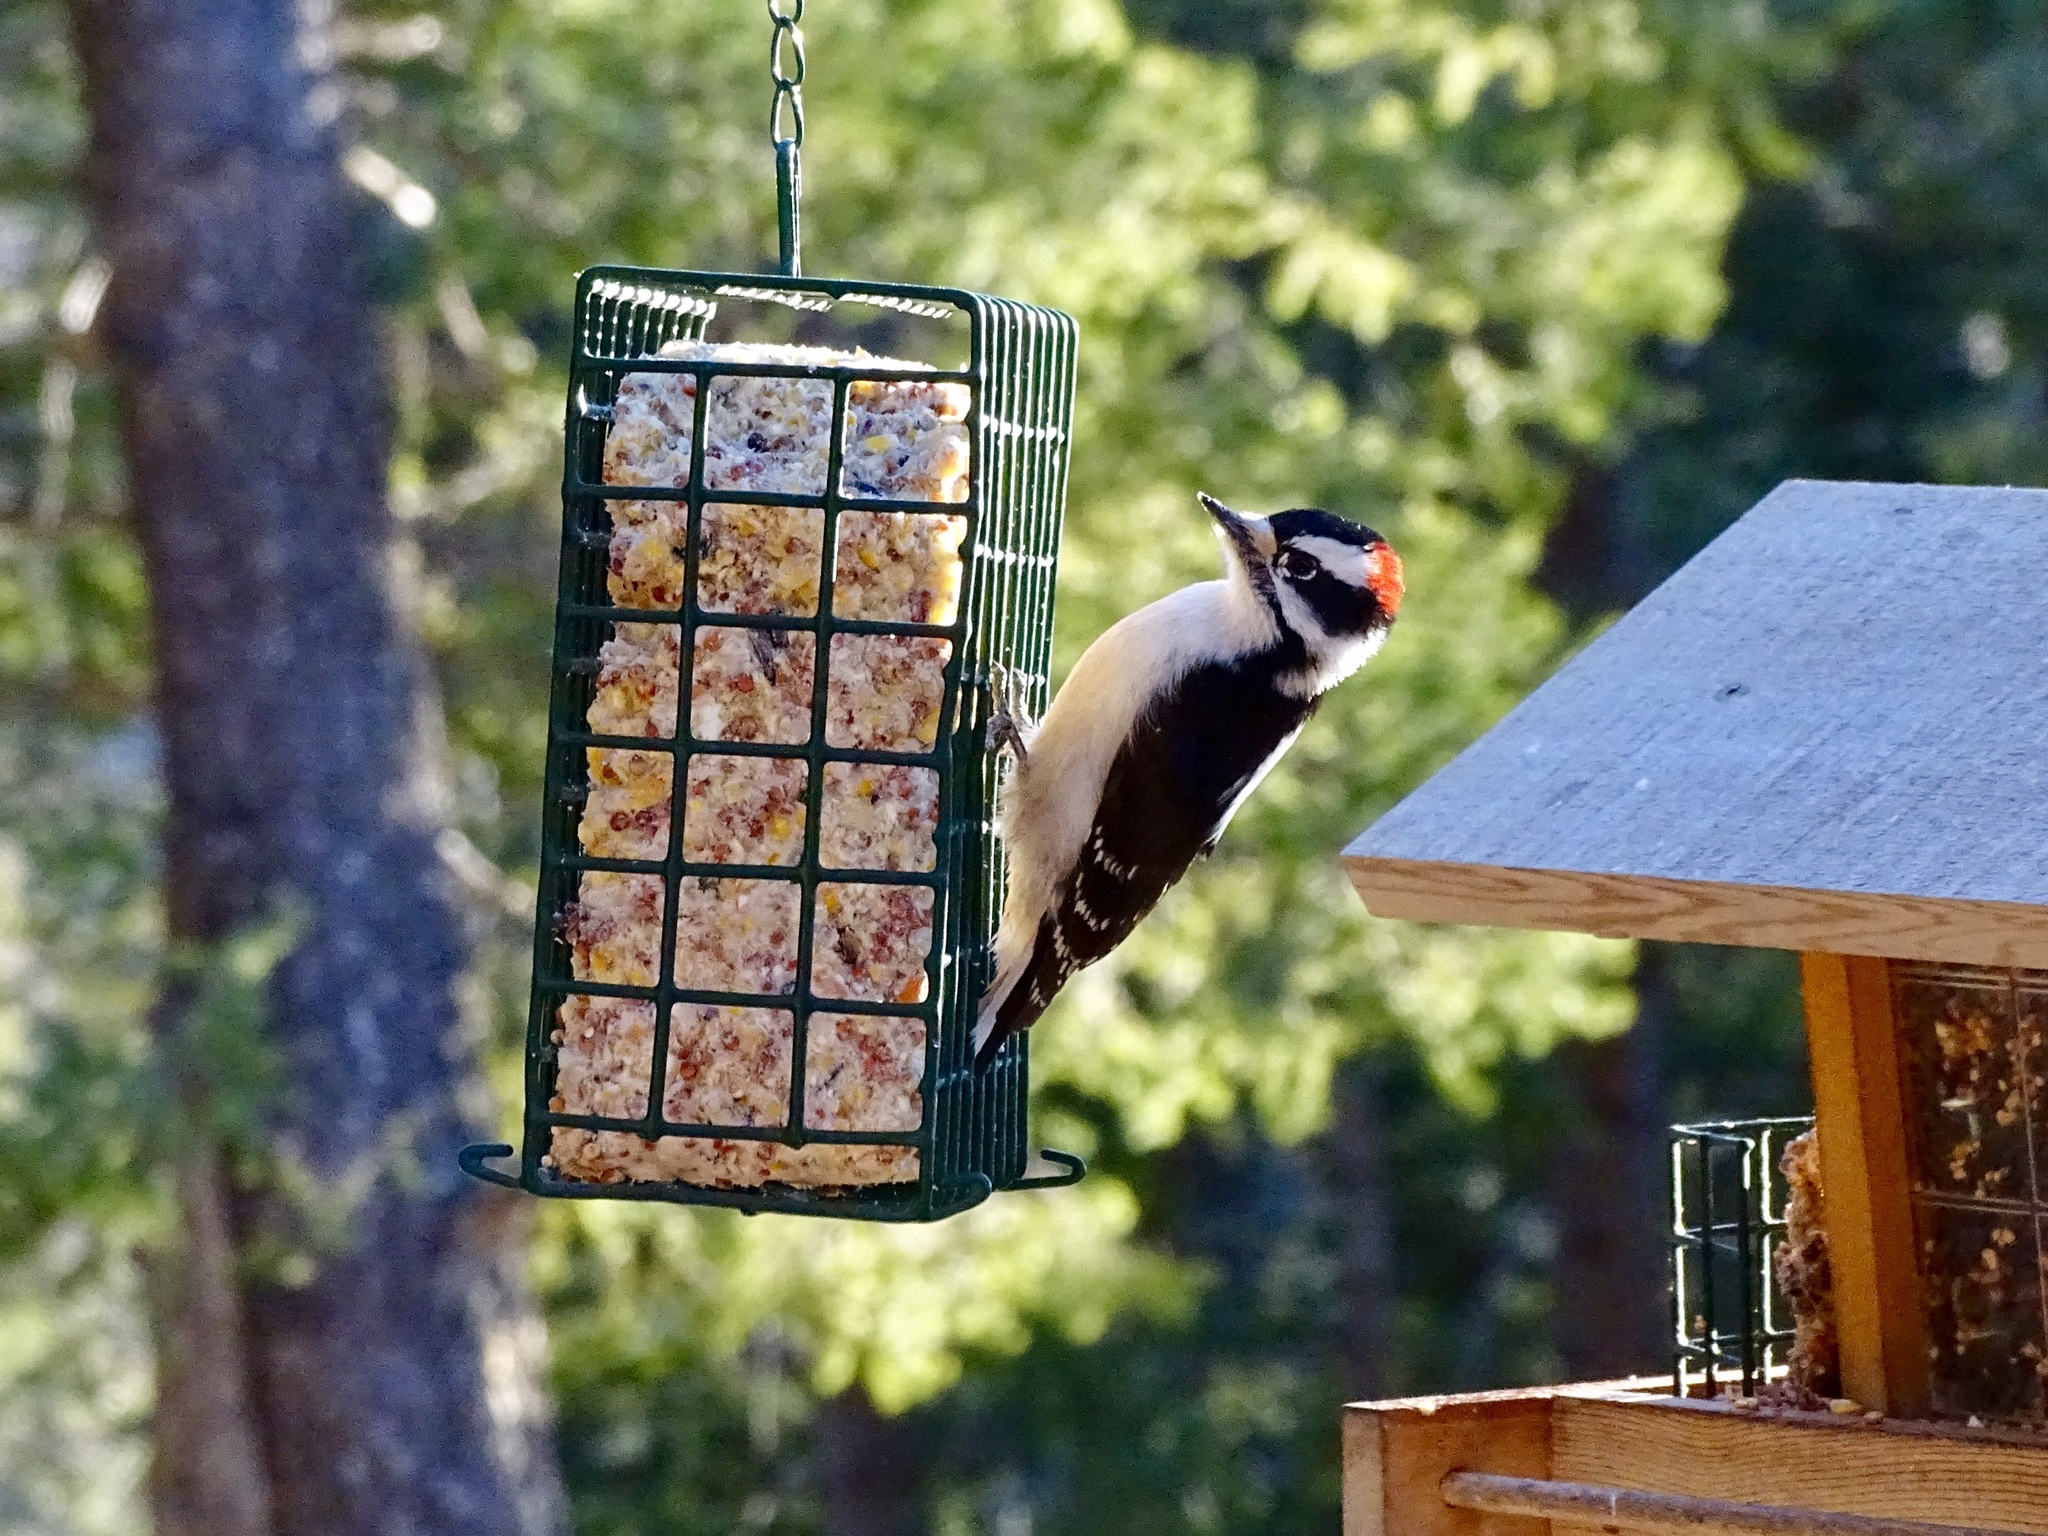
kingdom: Animalia
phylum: Chordata
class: Aves
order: Piciformes
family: Picidae
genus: Dryobates
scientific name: Dryobates pubescens
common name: Downy woodpecker
